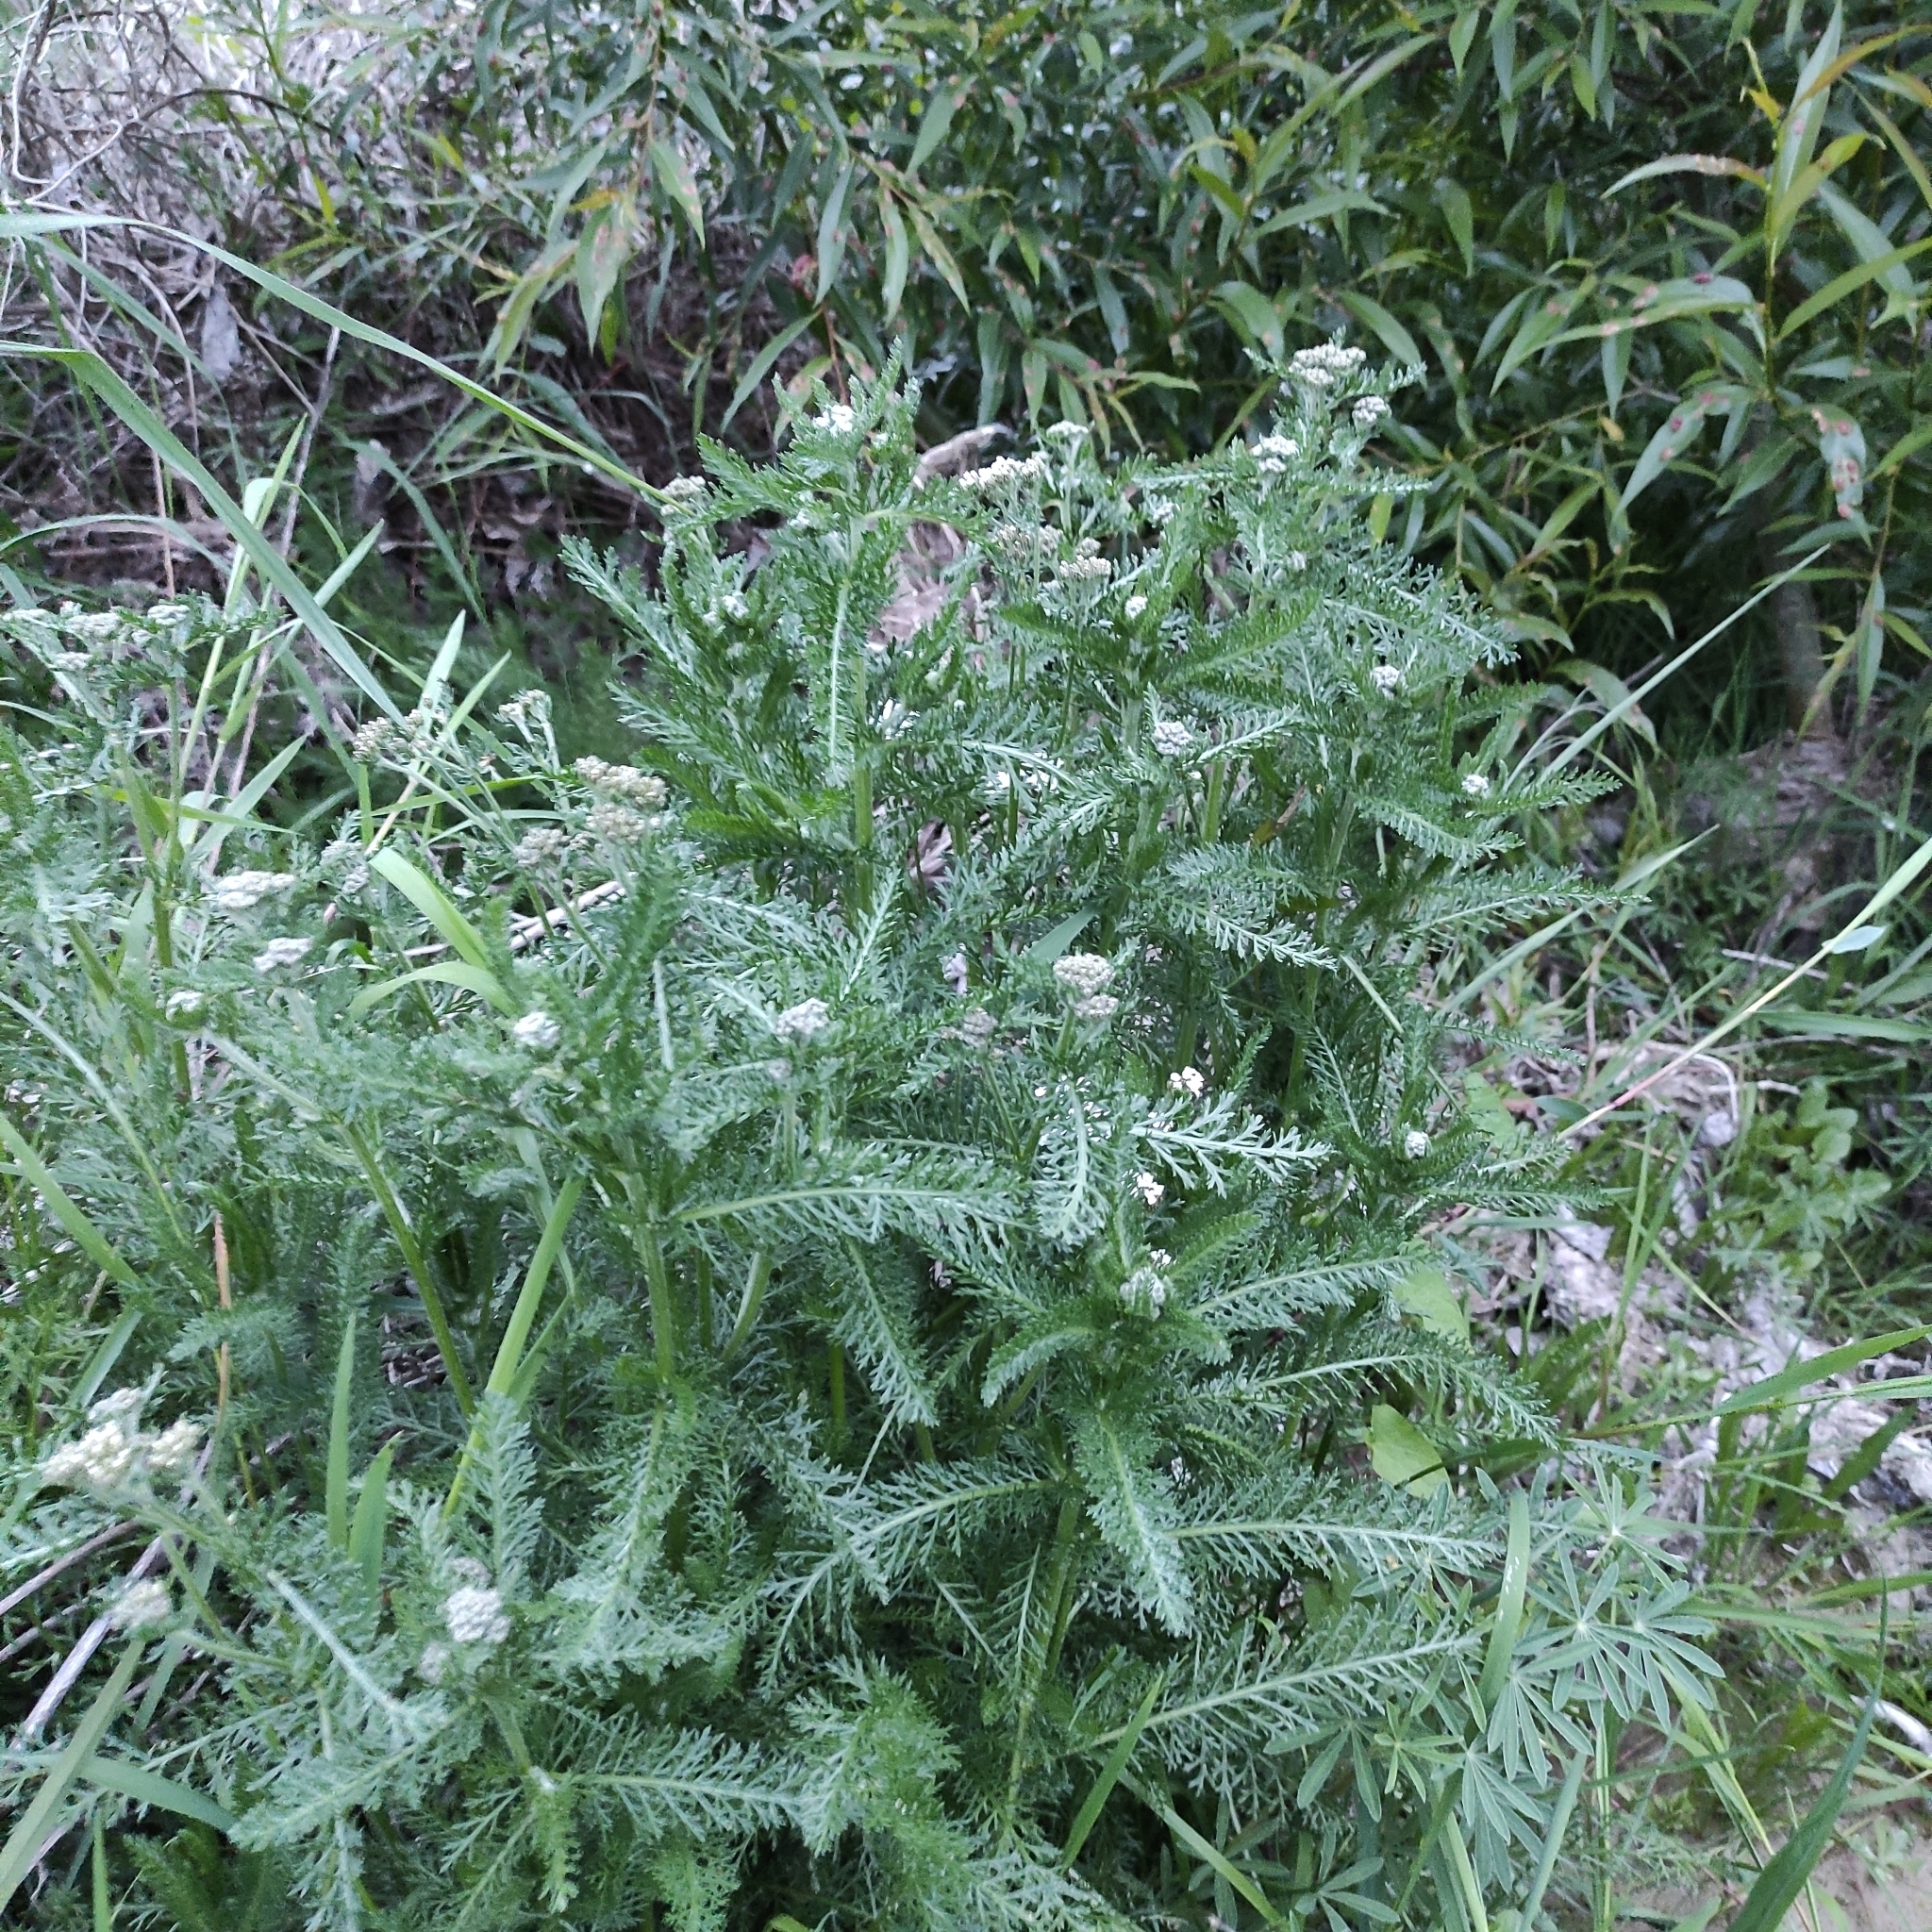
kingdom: Plantae
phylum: Tracheophyta
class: Magnoliopsida
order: Asterales
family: Asteraceae
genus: Achillea
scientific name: Achillea millefolium
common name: Yarrow
